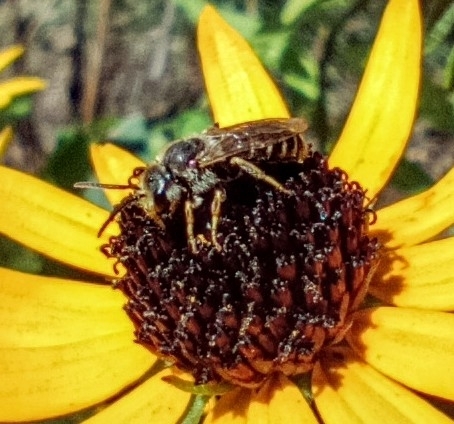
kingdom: Animalia
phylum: Arthropoda
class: Insecta
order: Hymenoptera
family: Halictidae
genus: Halictus
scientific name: Halictus ligatus
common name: Ligated furrow bee
